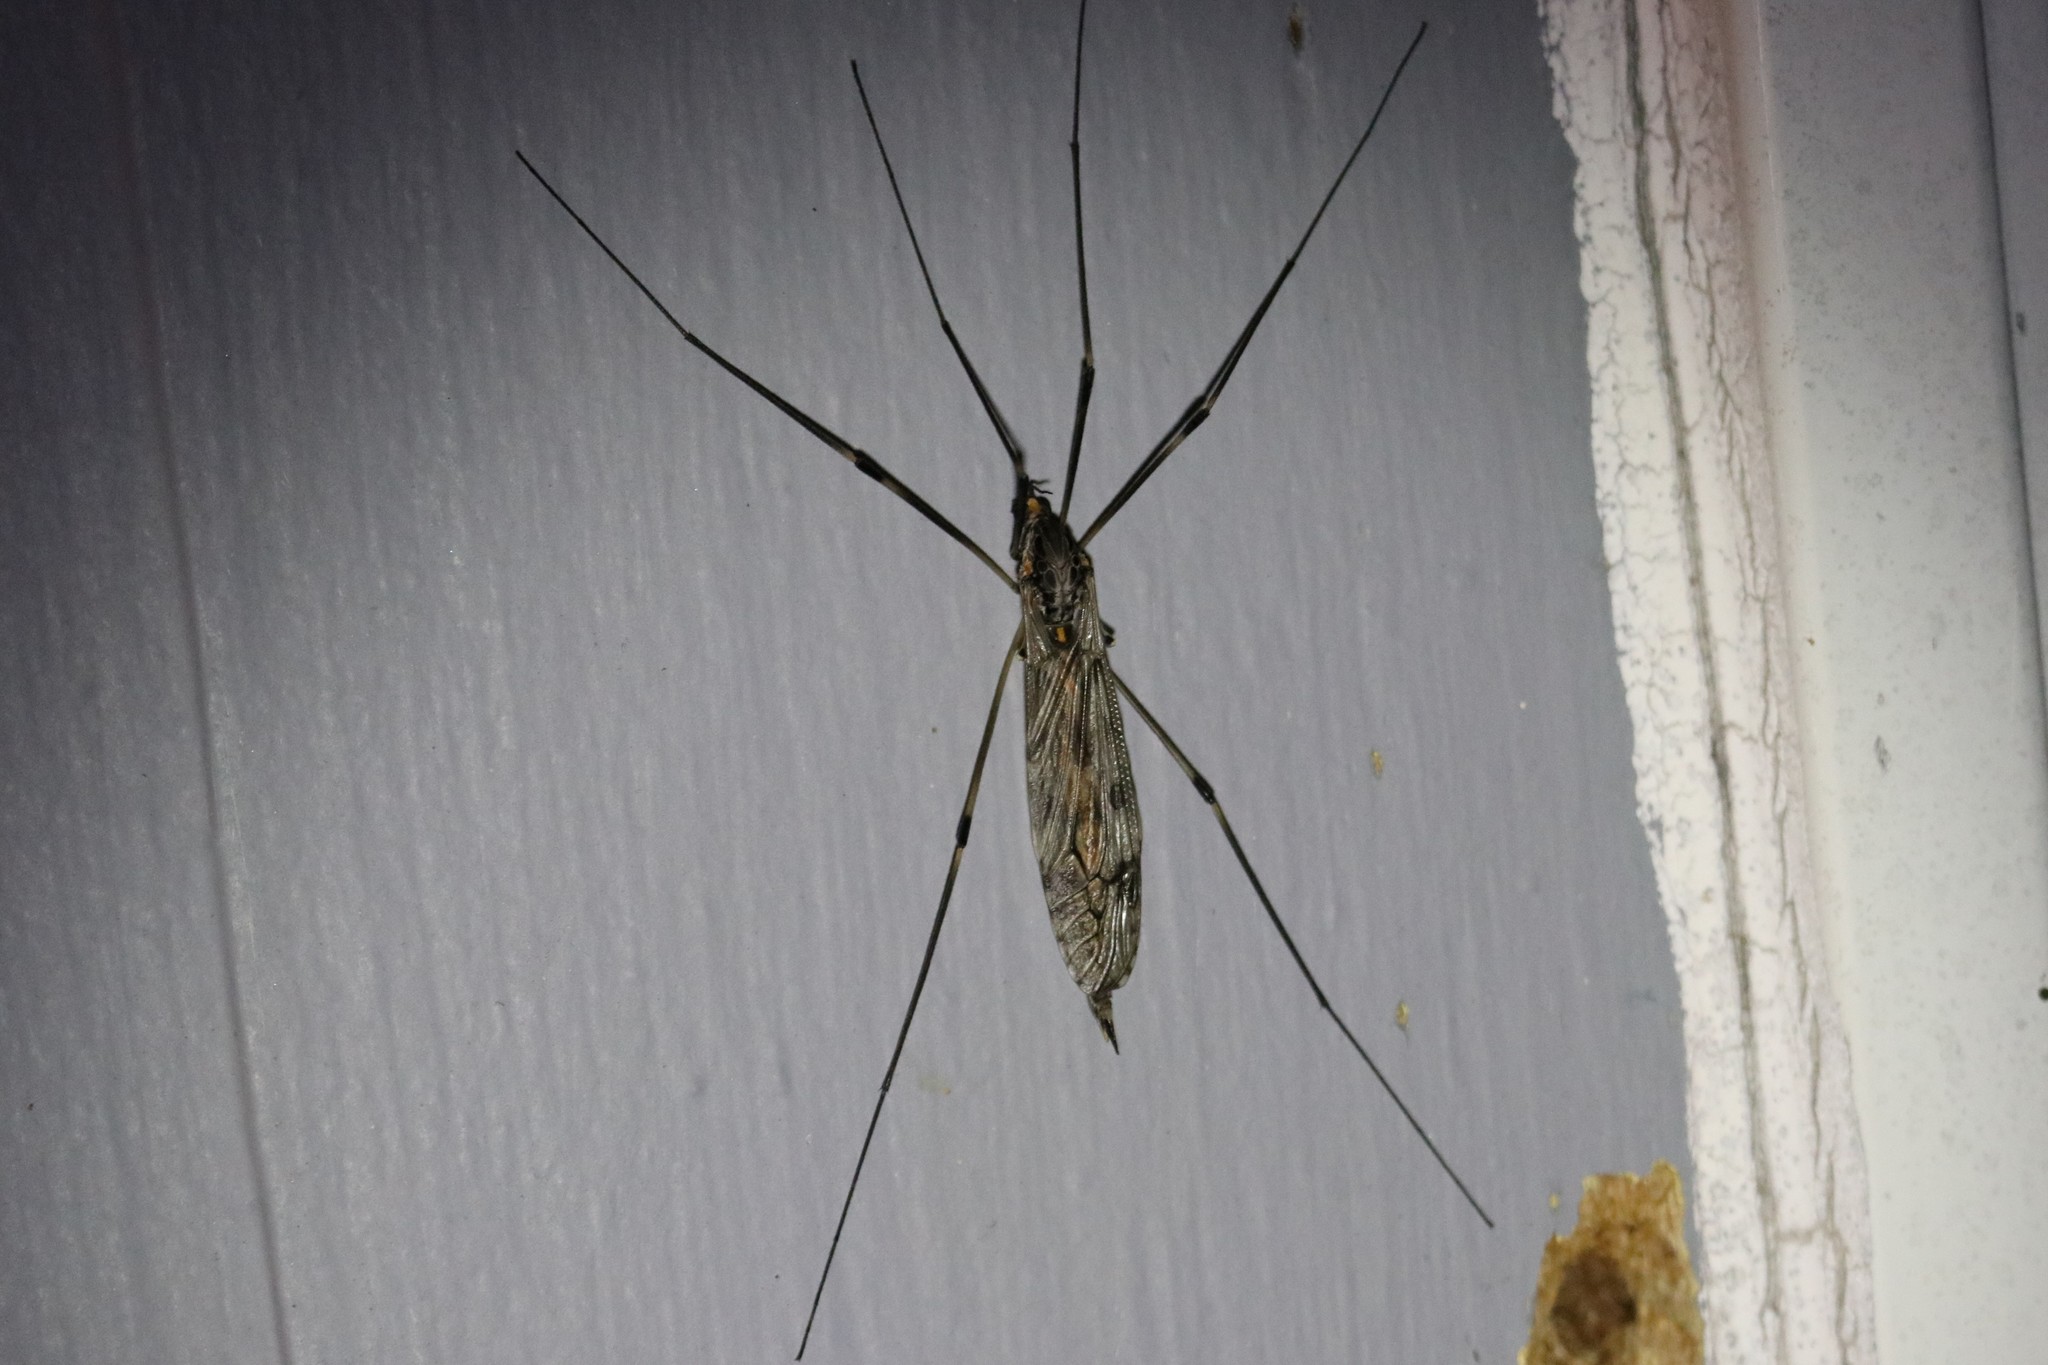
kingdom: Animalia
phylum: Arthropoda
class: Insecta
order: Diptera
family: Tipulidae
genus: Tipula
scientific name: Tipula abdominalis
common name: Giant crane fly
